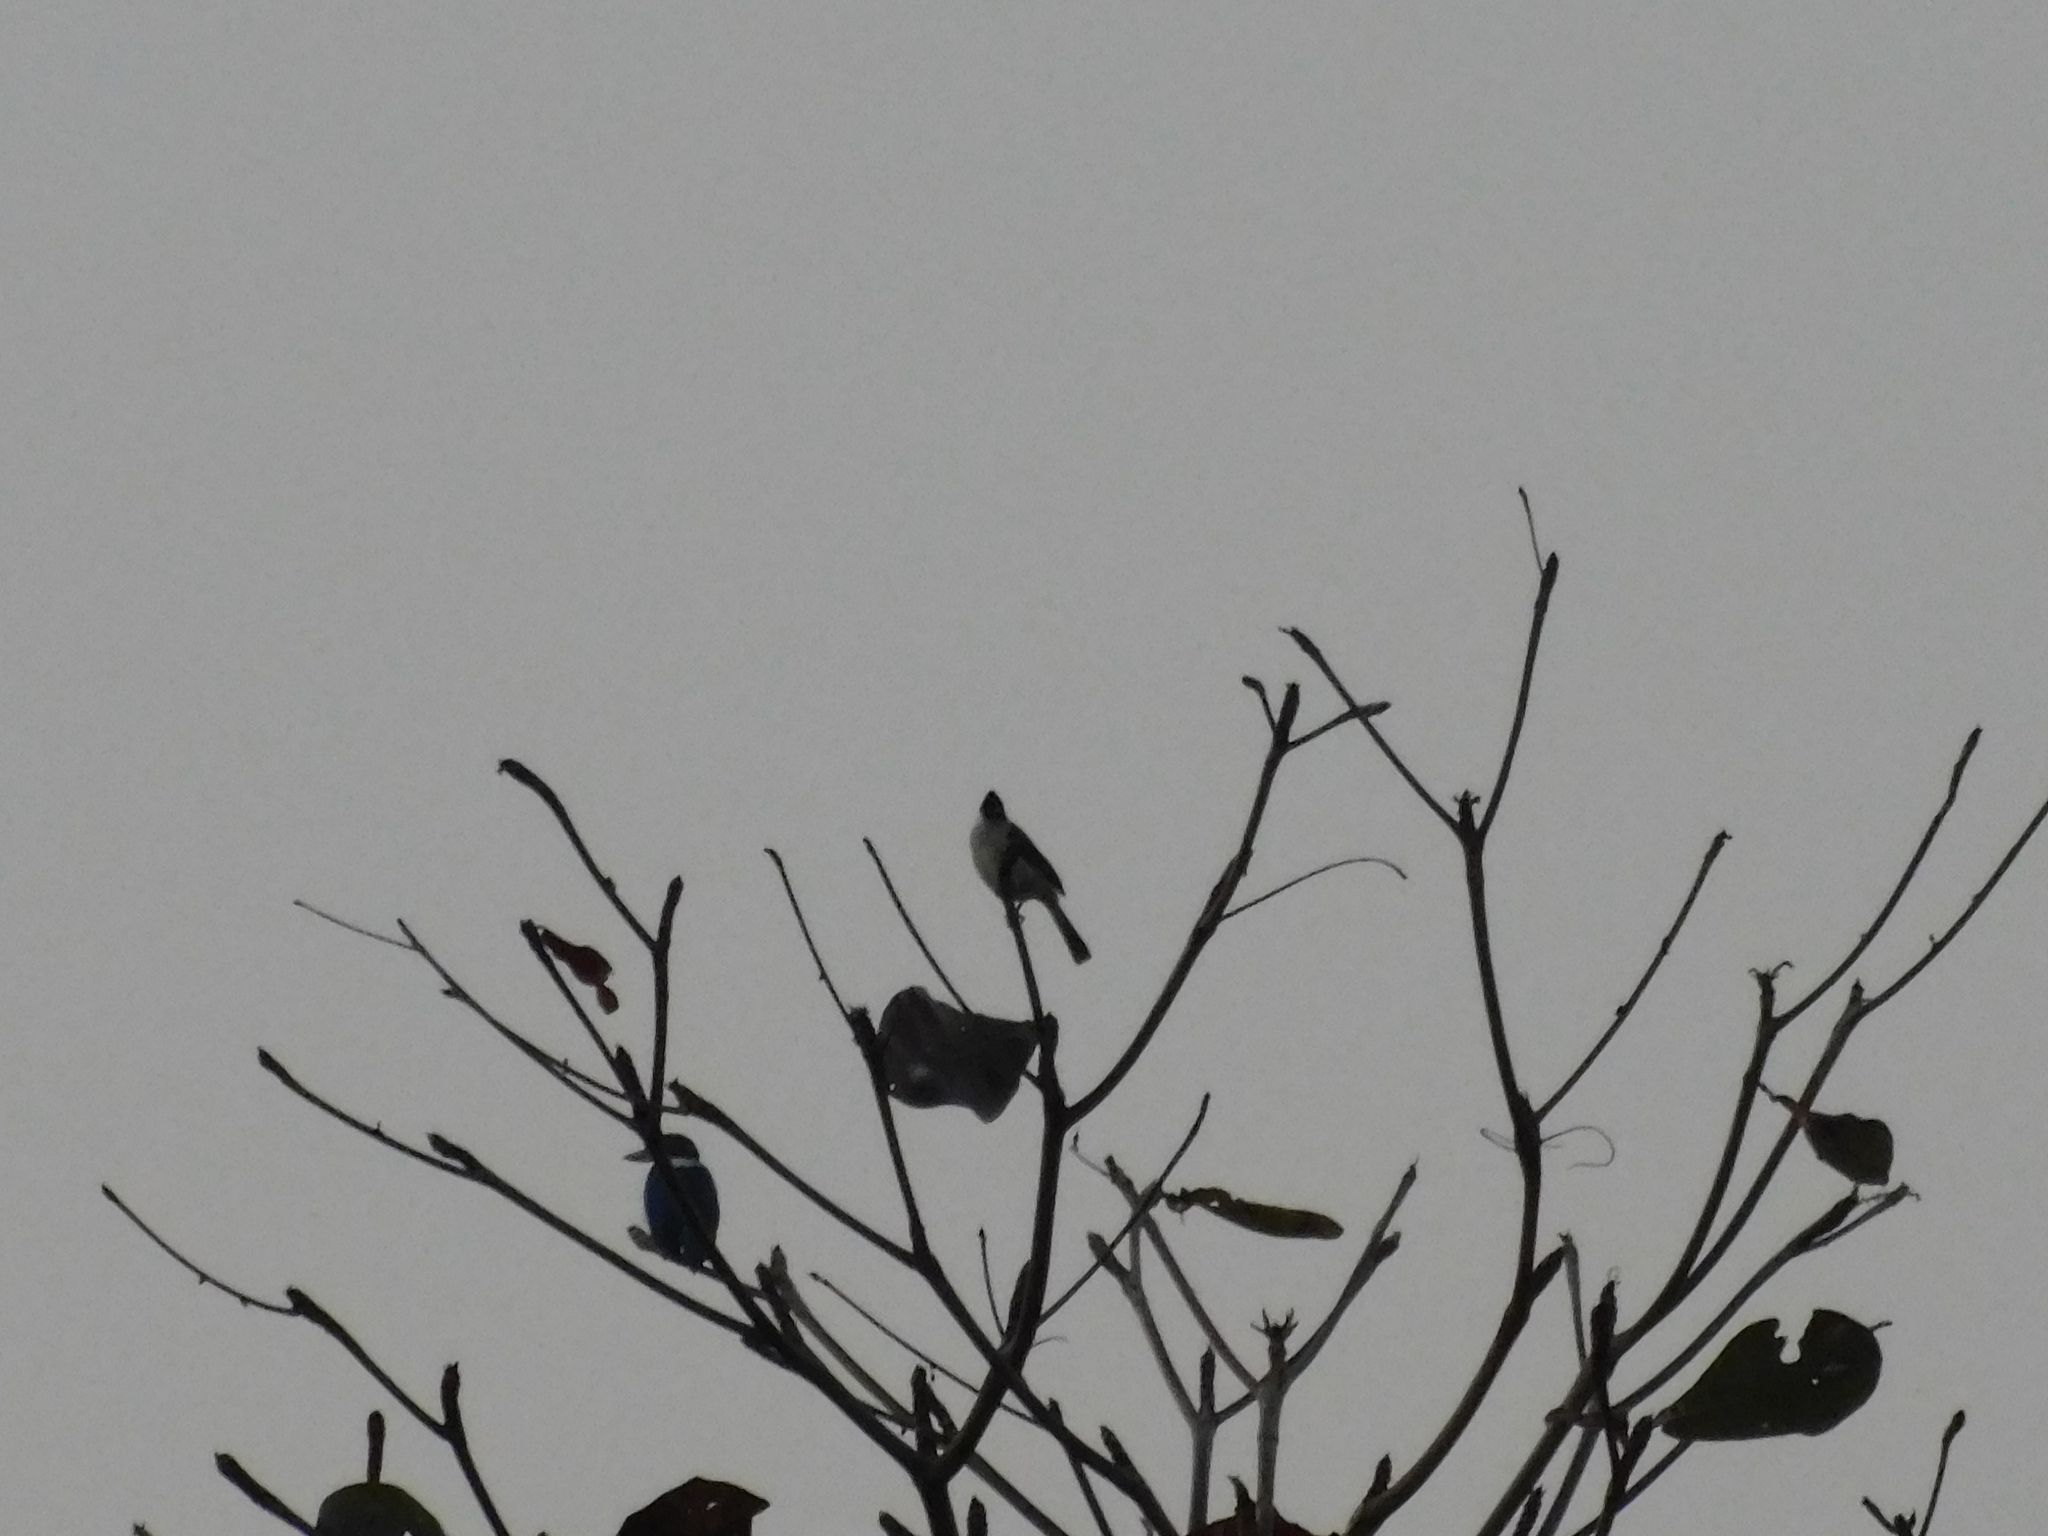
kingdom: Animalia
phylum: Chordata
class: Aves
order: Passeriformes
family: Pycnonotidae
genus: Pycnonotus
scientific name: Pycnonotus aurigaster
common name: Sooty-headed bulbul
